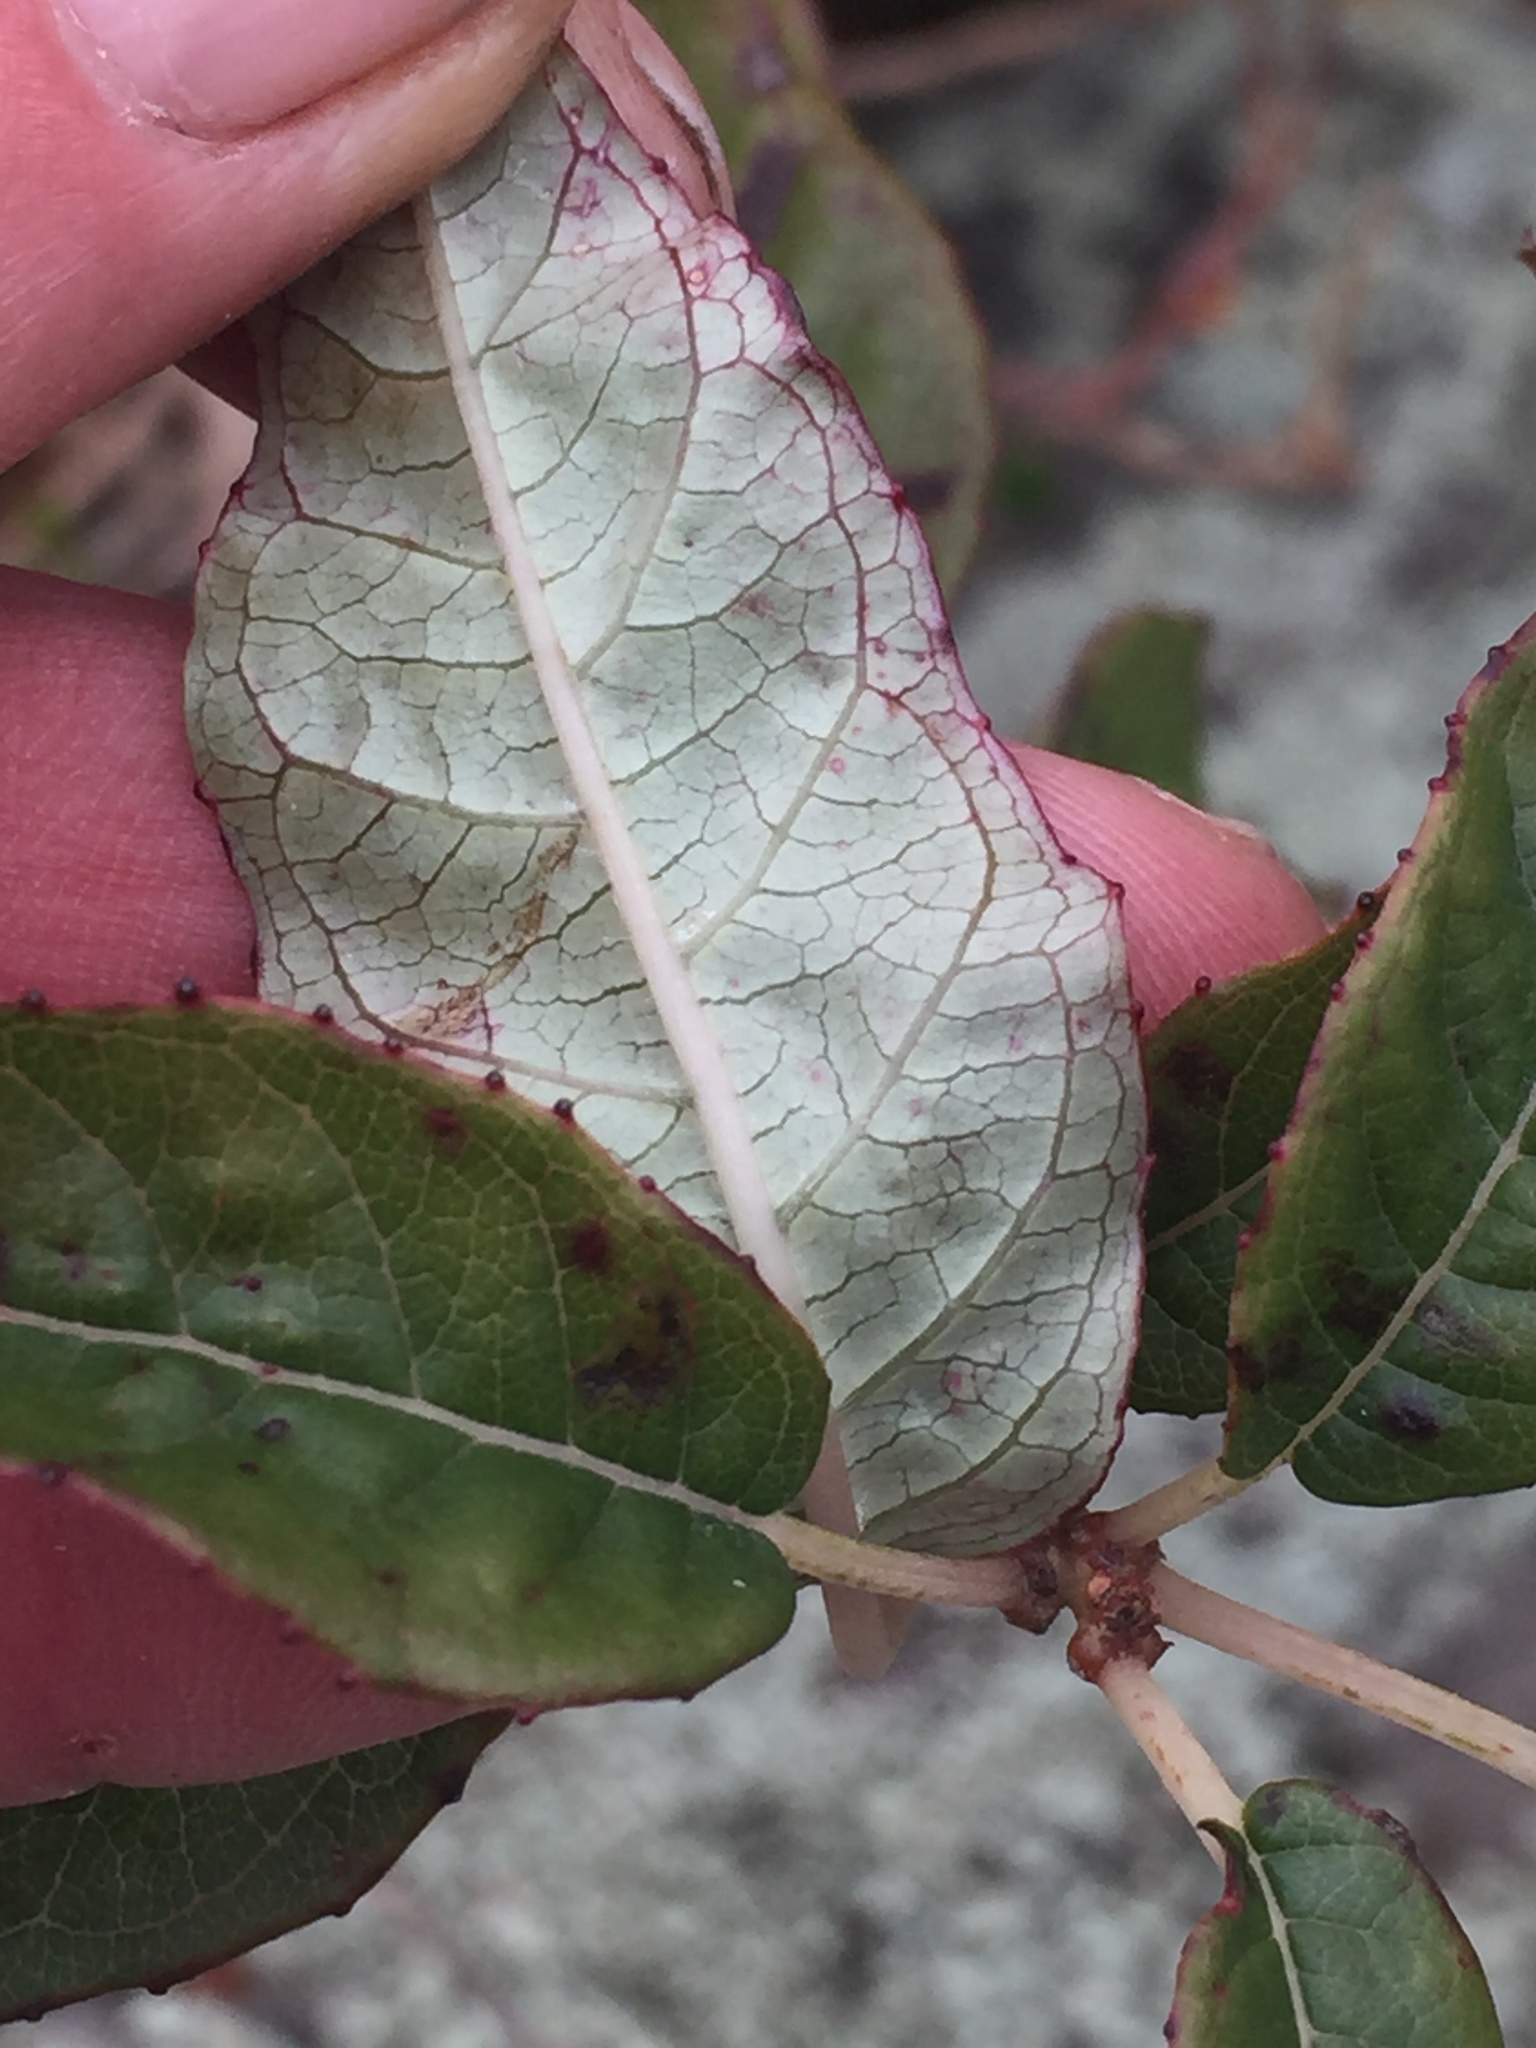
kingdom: Plantae
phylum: Tracheophyta
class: Magnoliopsida
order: Myrtales
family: Onagraceae
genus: Fuchsia
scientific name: Fuchsia excorticata
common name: Tree fuchsia
